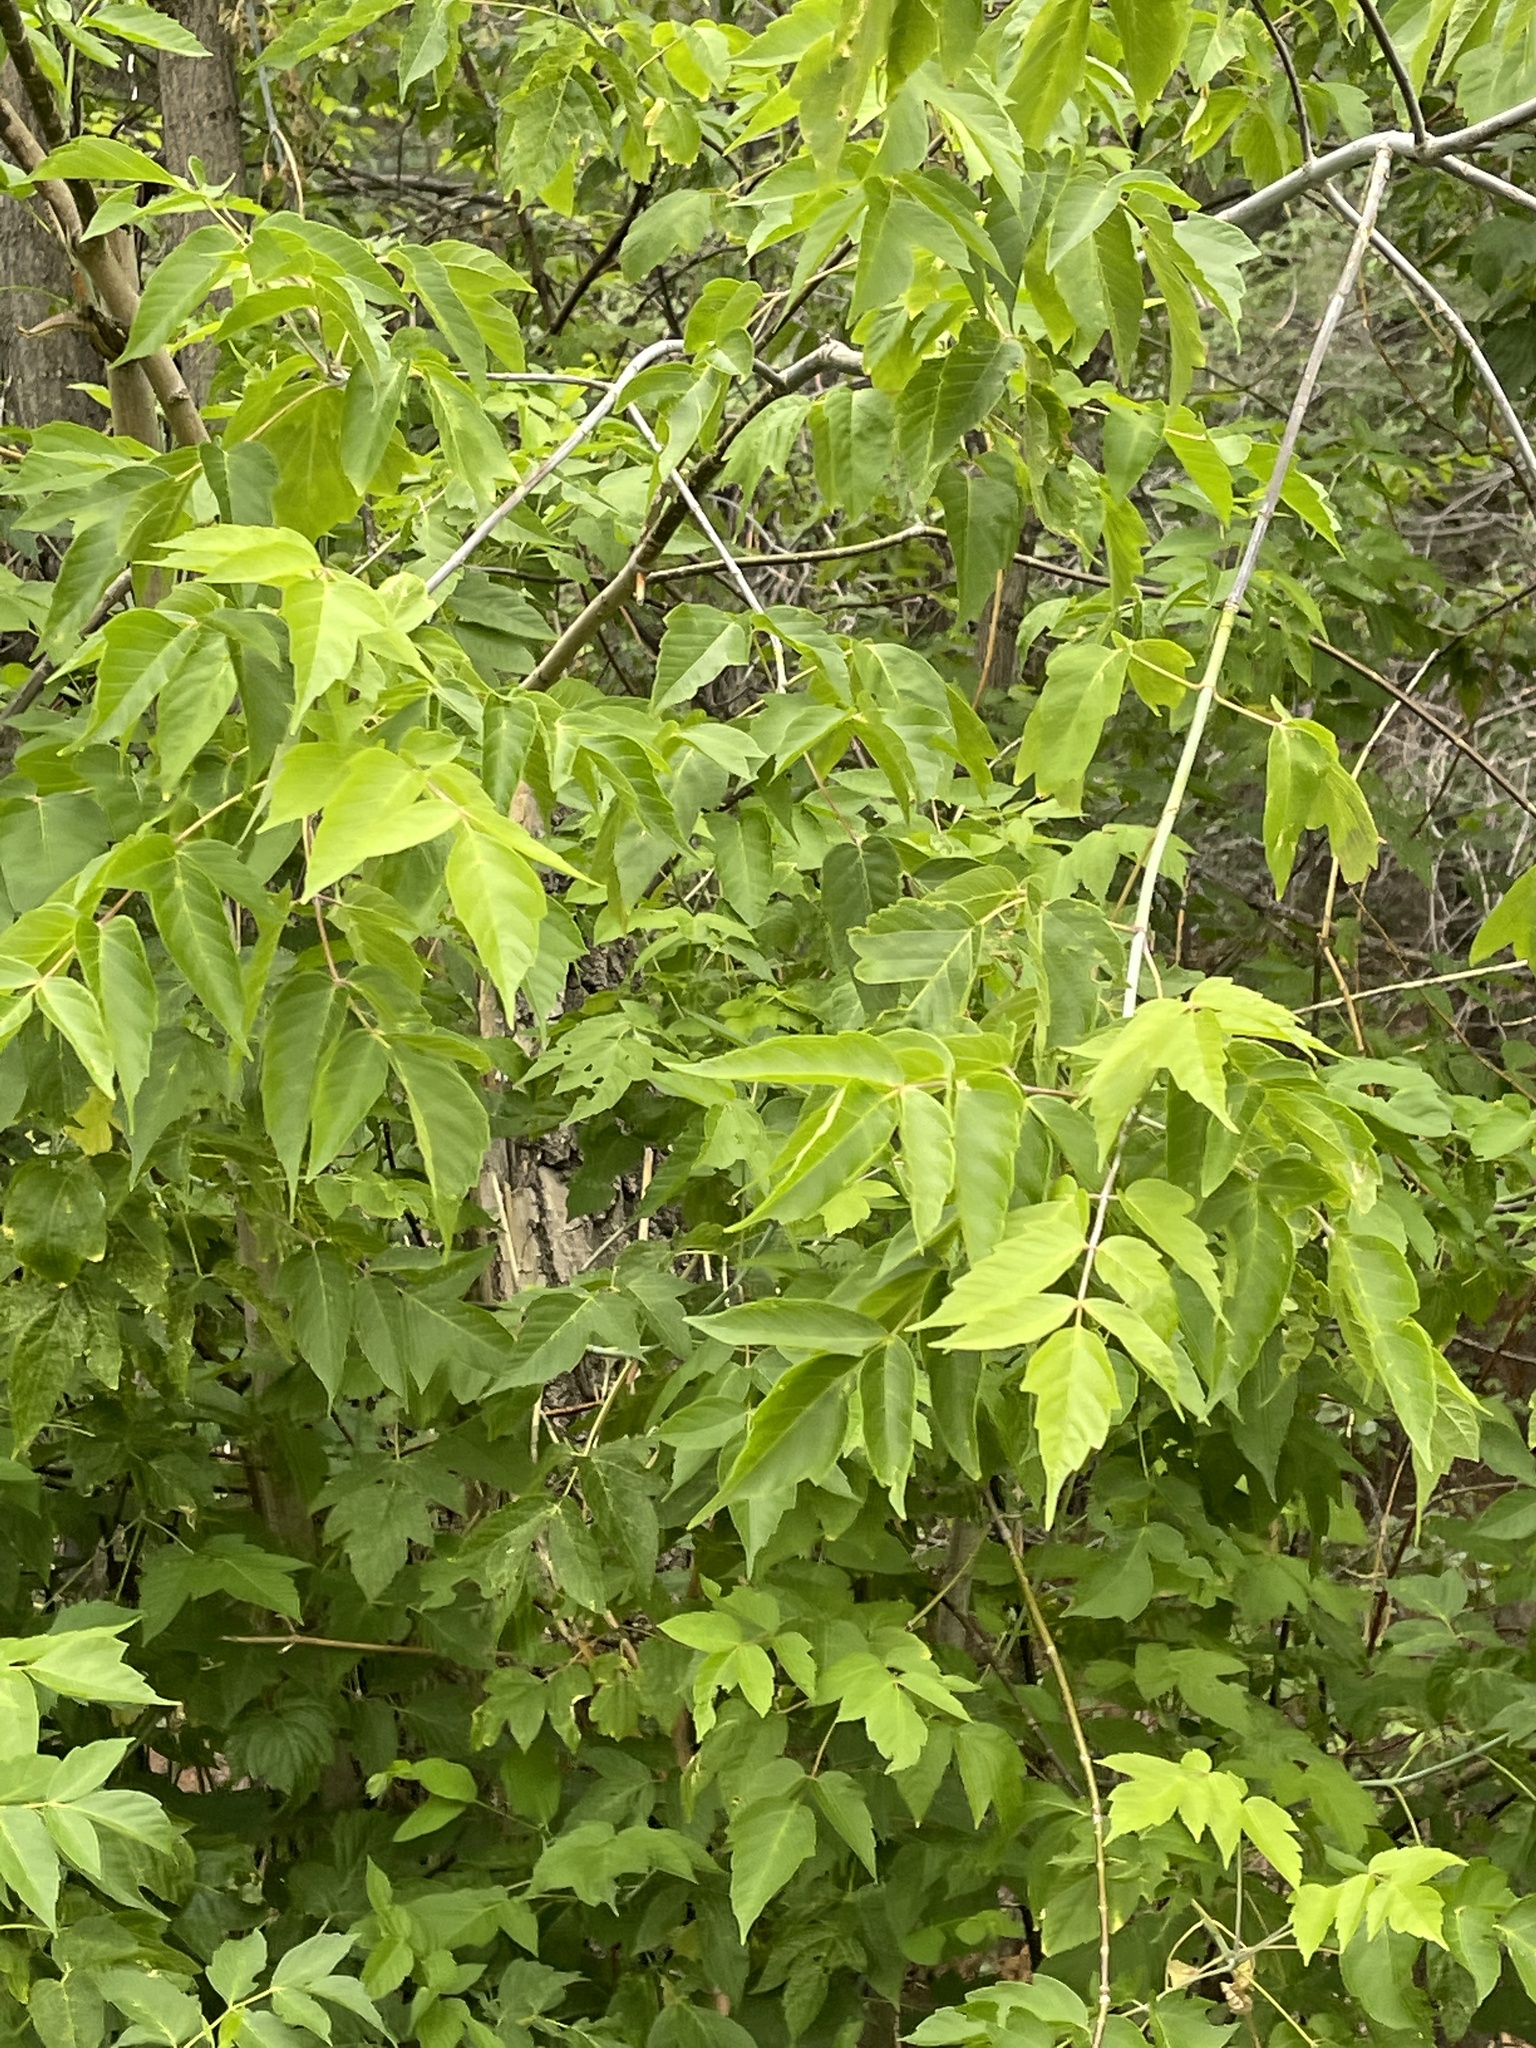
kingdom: Plantae
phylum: Tracheophyta
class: Magnoliopsida
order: Sapindales
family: Sapindaceae
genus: Acer
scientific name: Acer negundo
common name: Ashleaf maple
